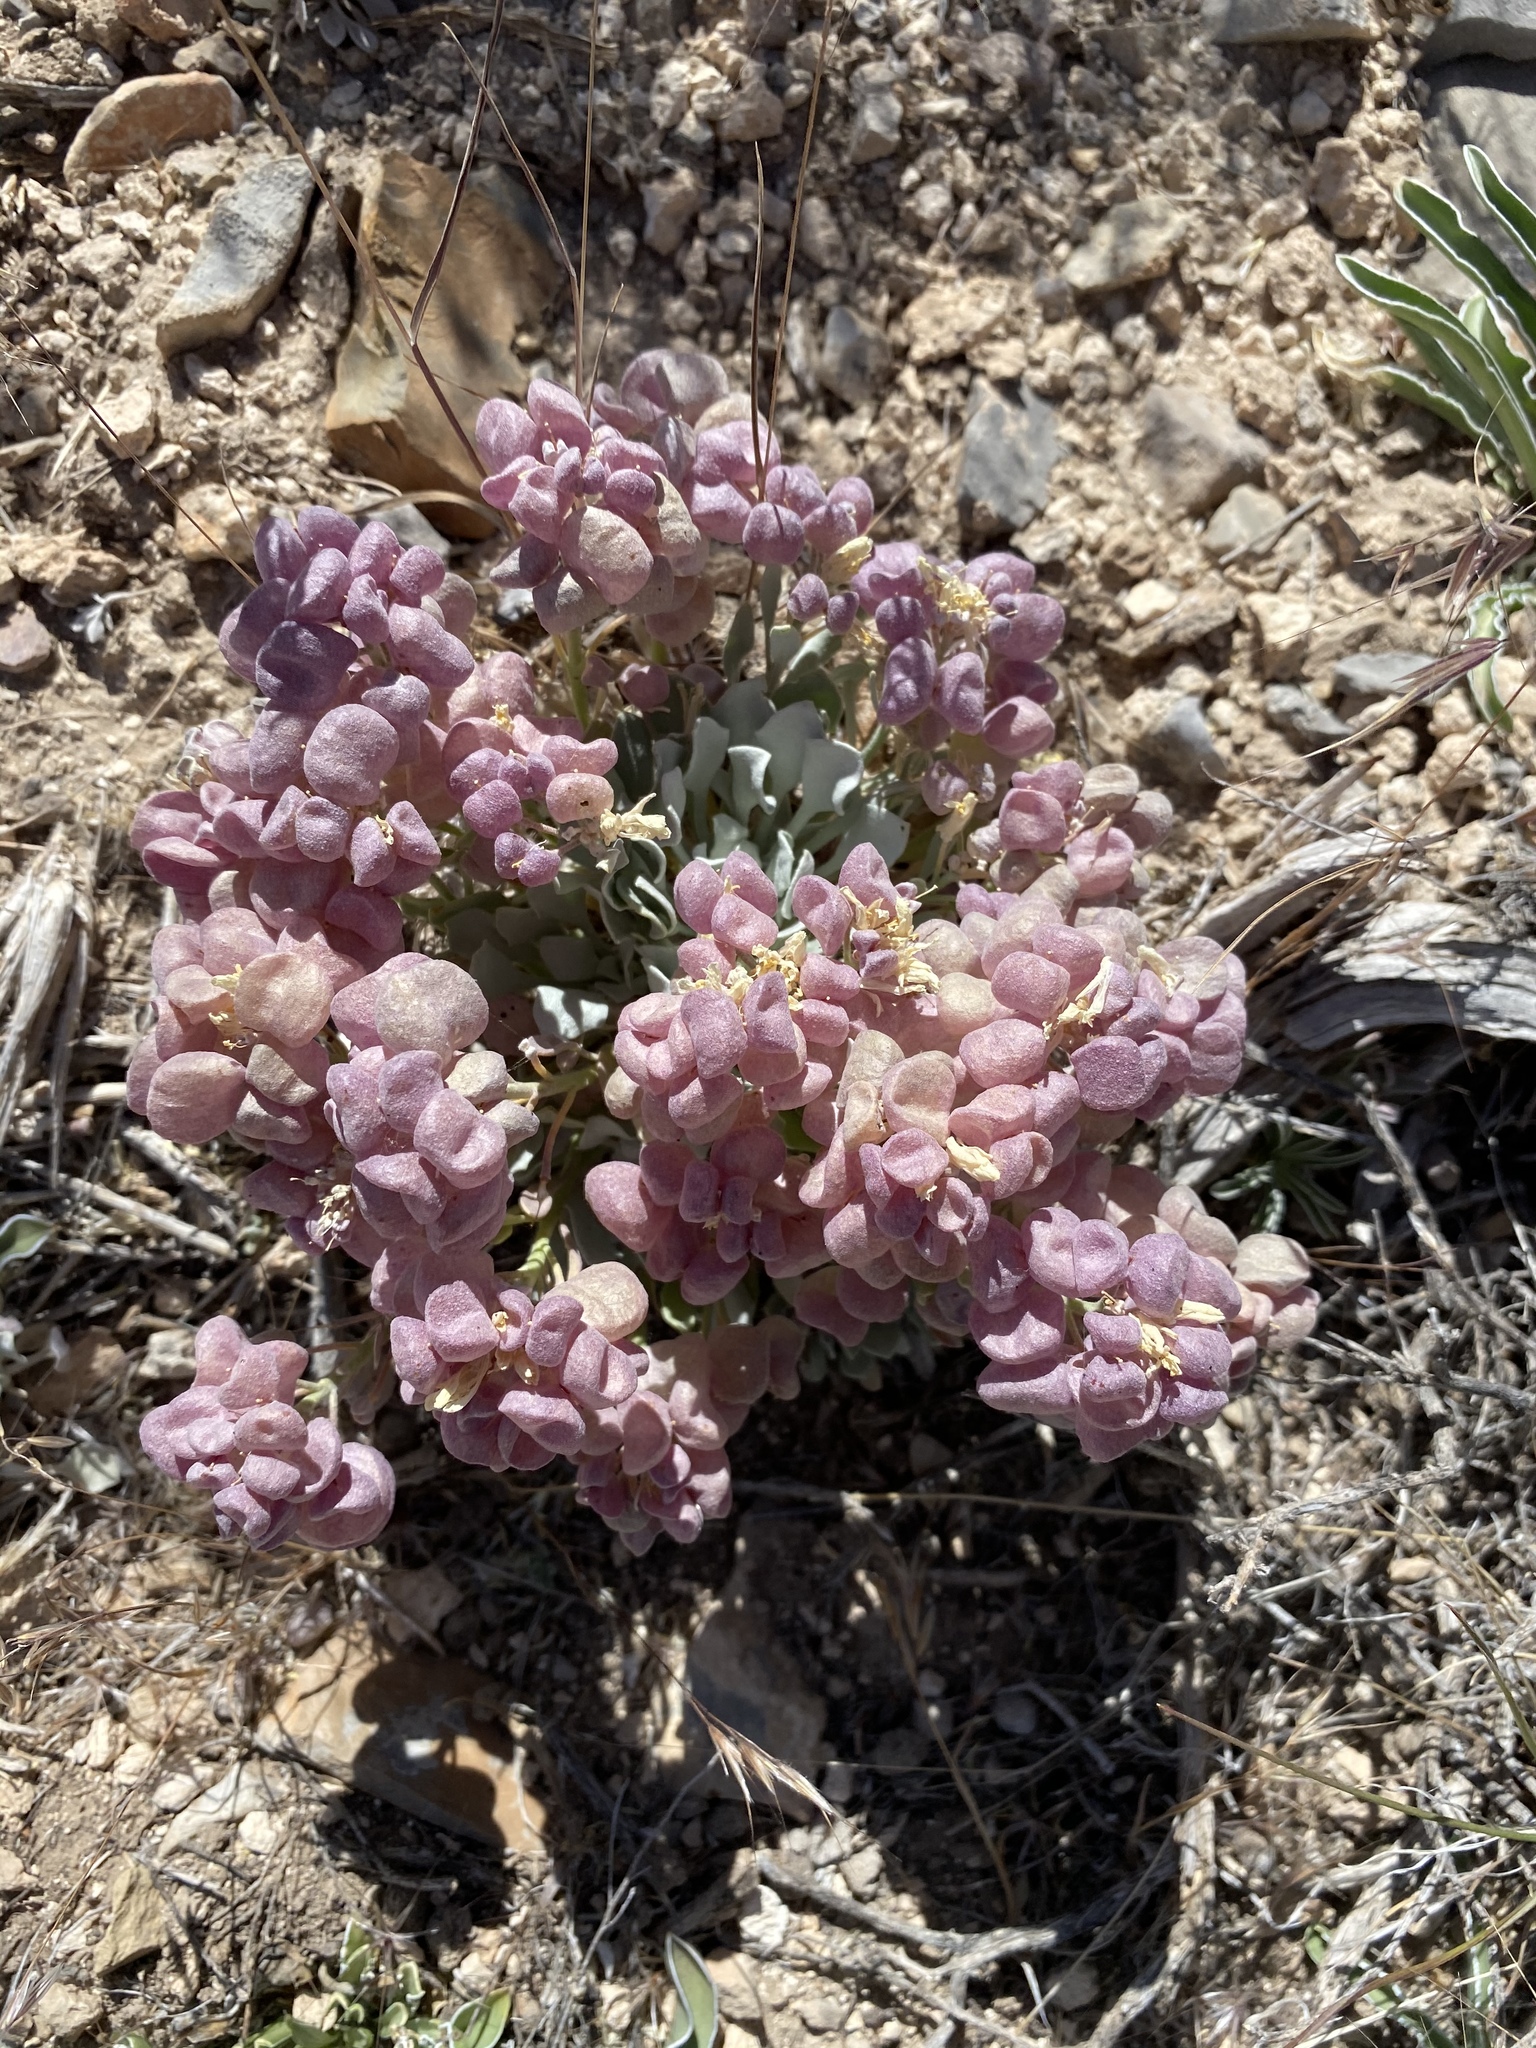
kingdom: Plantae
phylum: Tracheophyta
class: Magnoliopsida
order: Brassicales
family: Brassicaceae
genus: Physaria
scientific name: Physaria chambersii
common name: Chamber's twinpod
